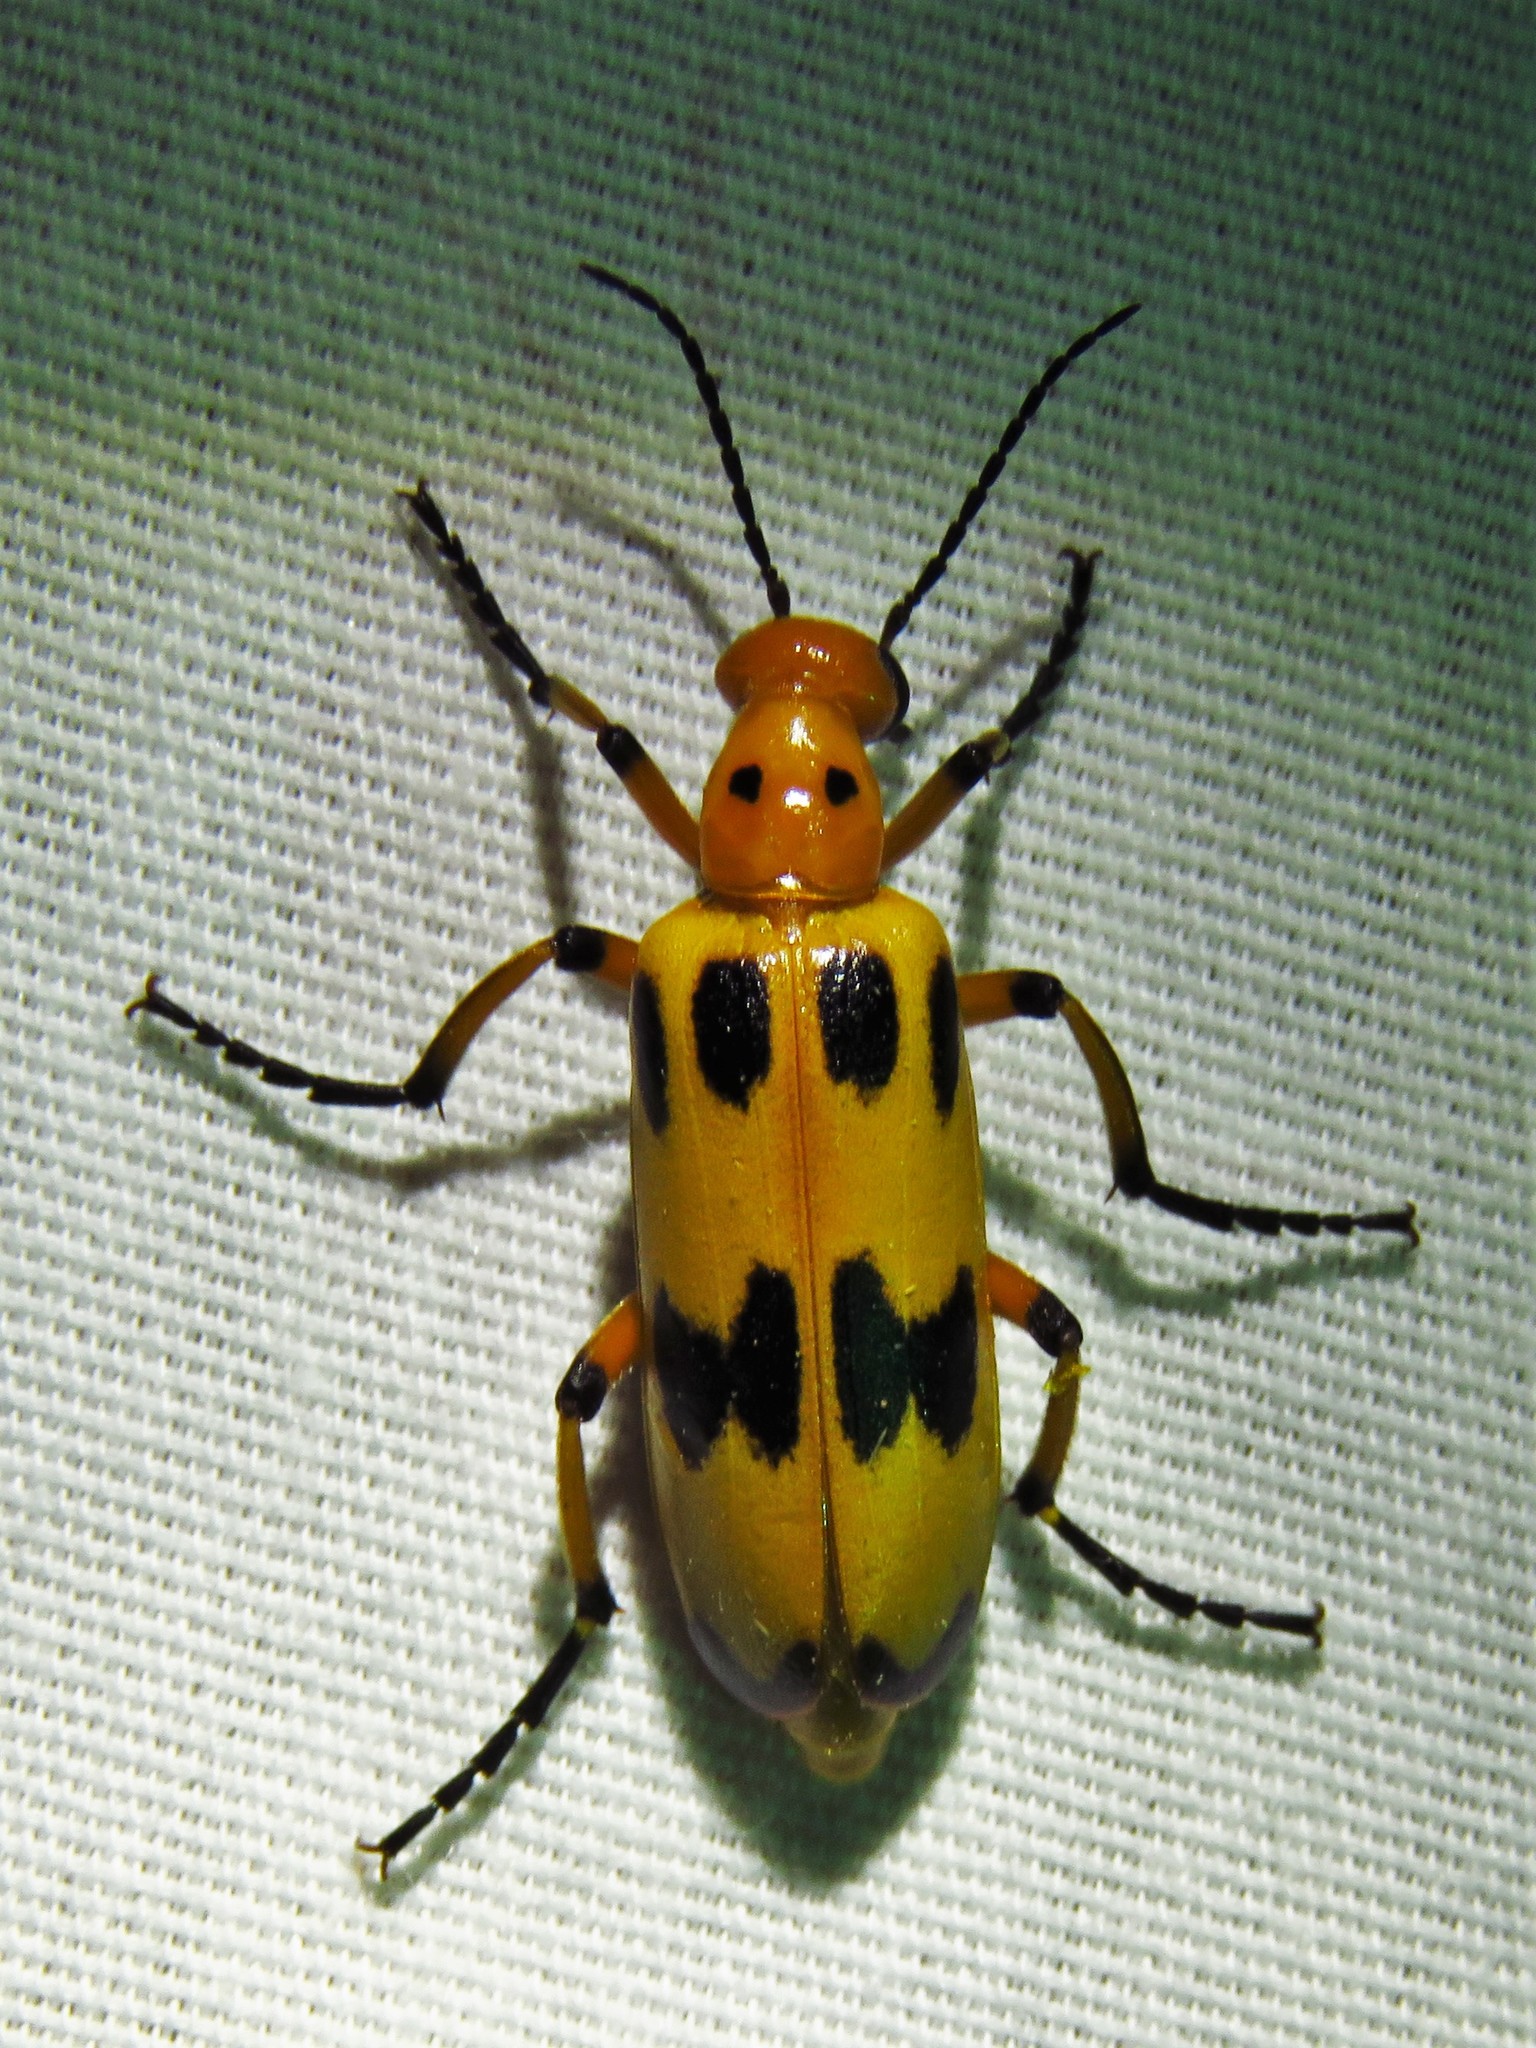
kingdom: Animalia
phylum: Arthropoda
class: Insecta
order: Coleoptera
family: Meloidae
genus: Pyrota
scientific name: Pyrota fasciata
